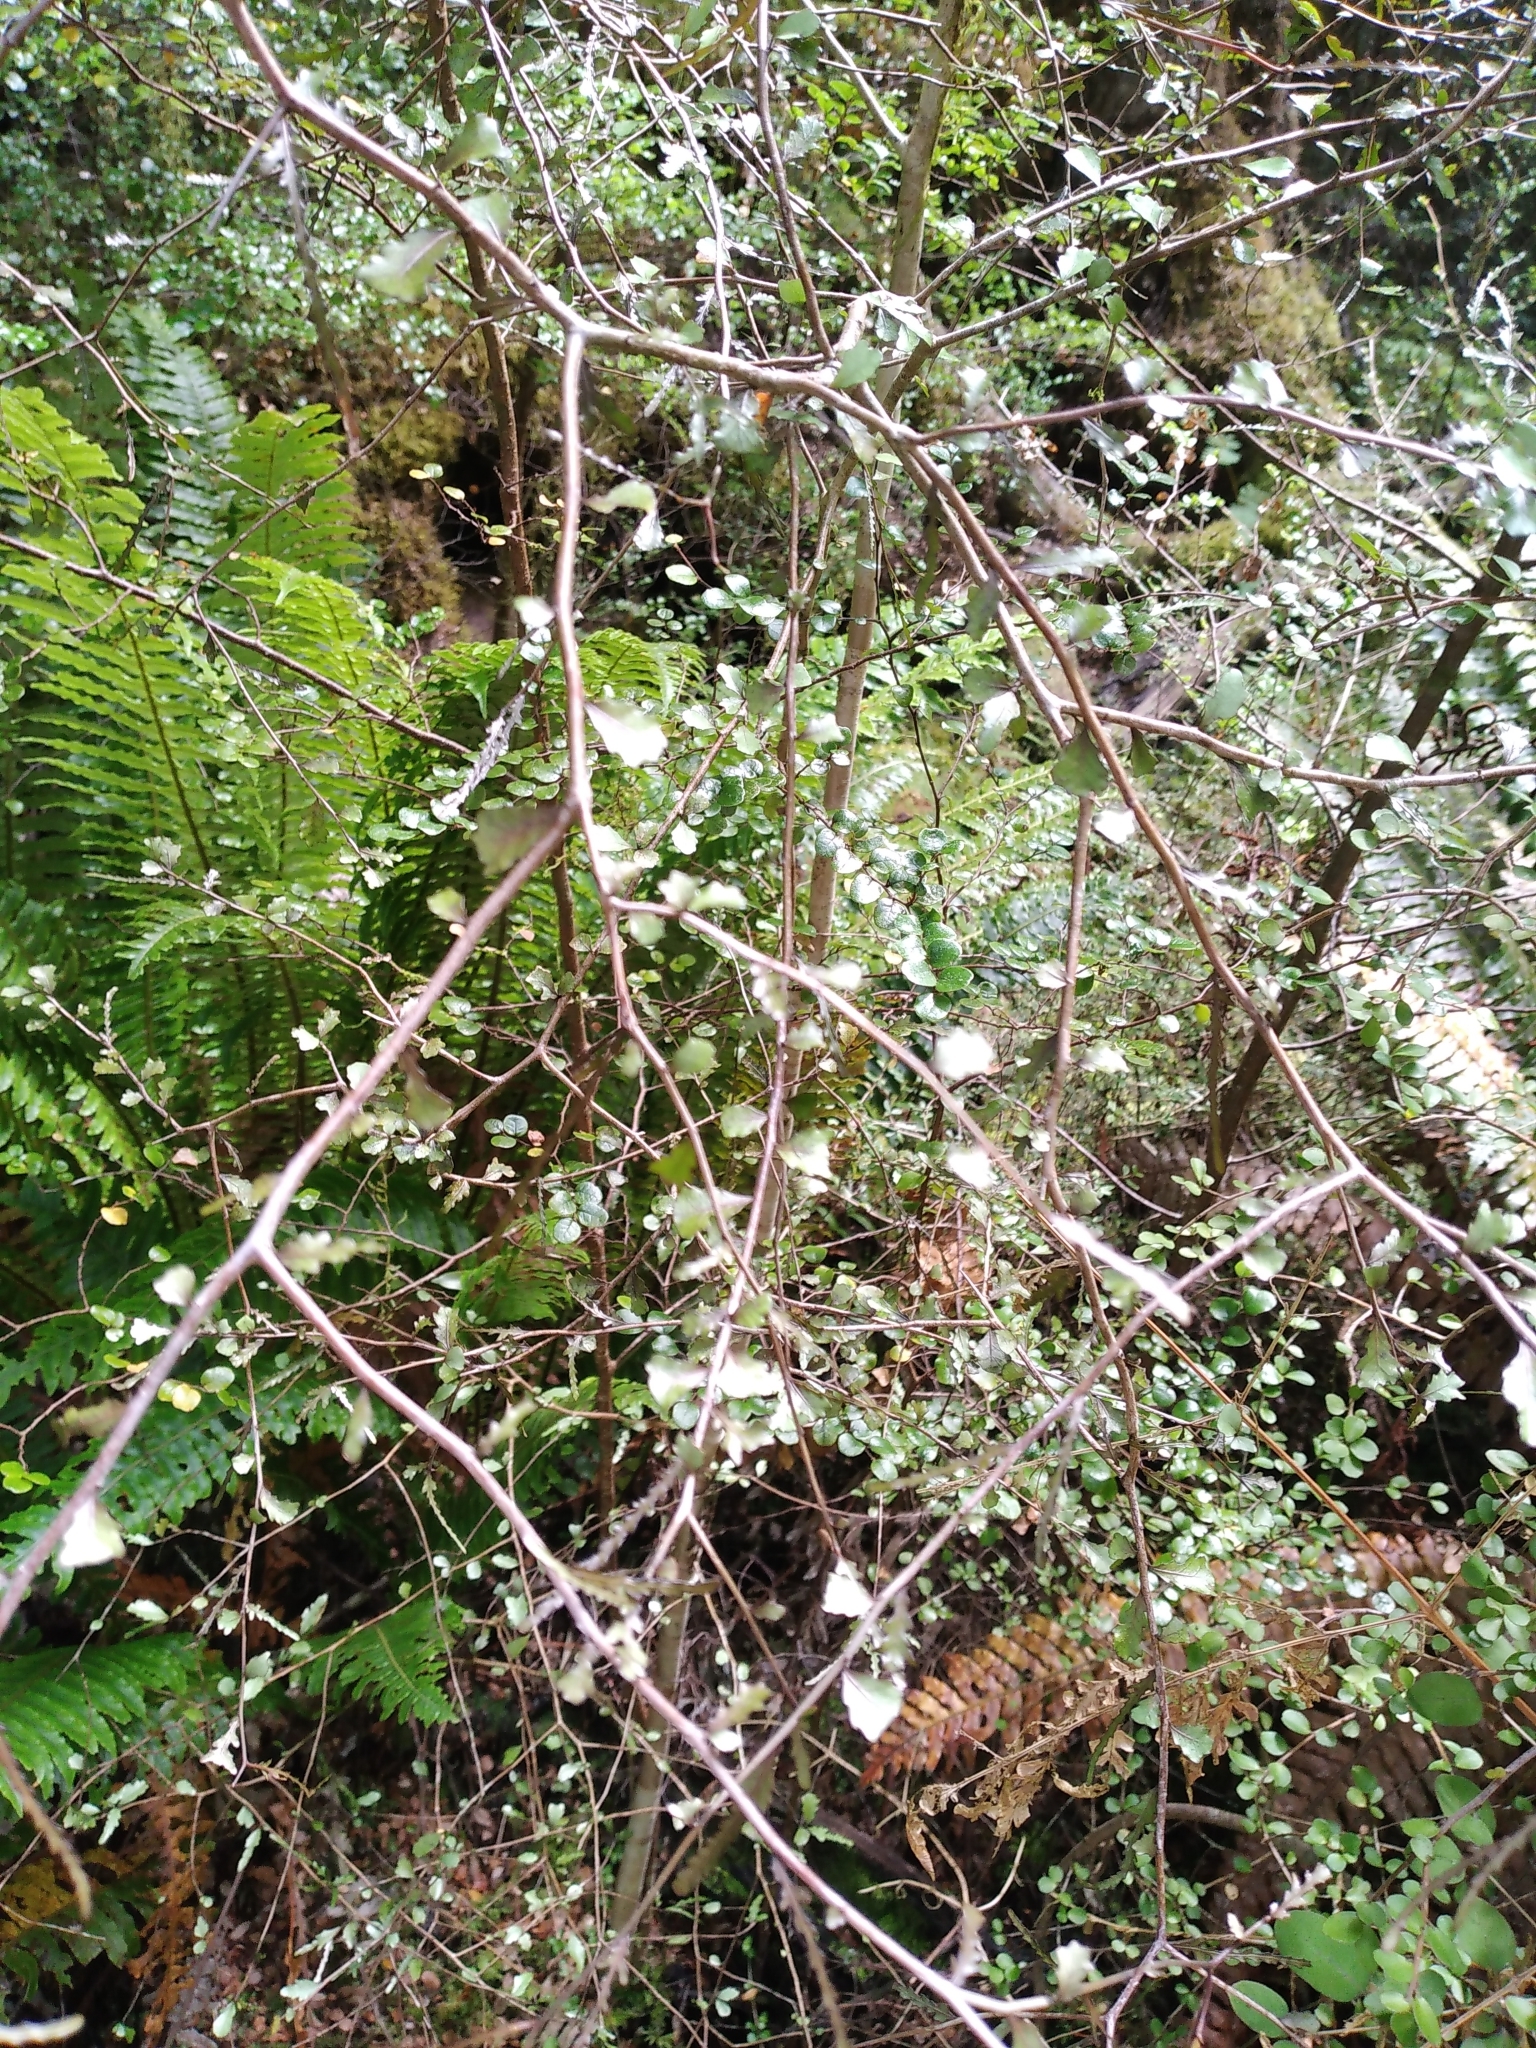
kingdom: Plantae
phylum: Tracheophyta
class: Magnoliopsida
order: Oxalidales
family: Elaeocarpaceae
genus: Elaeocarpus
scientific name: Elaeocarpus hookerianus
